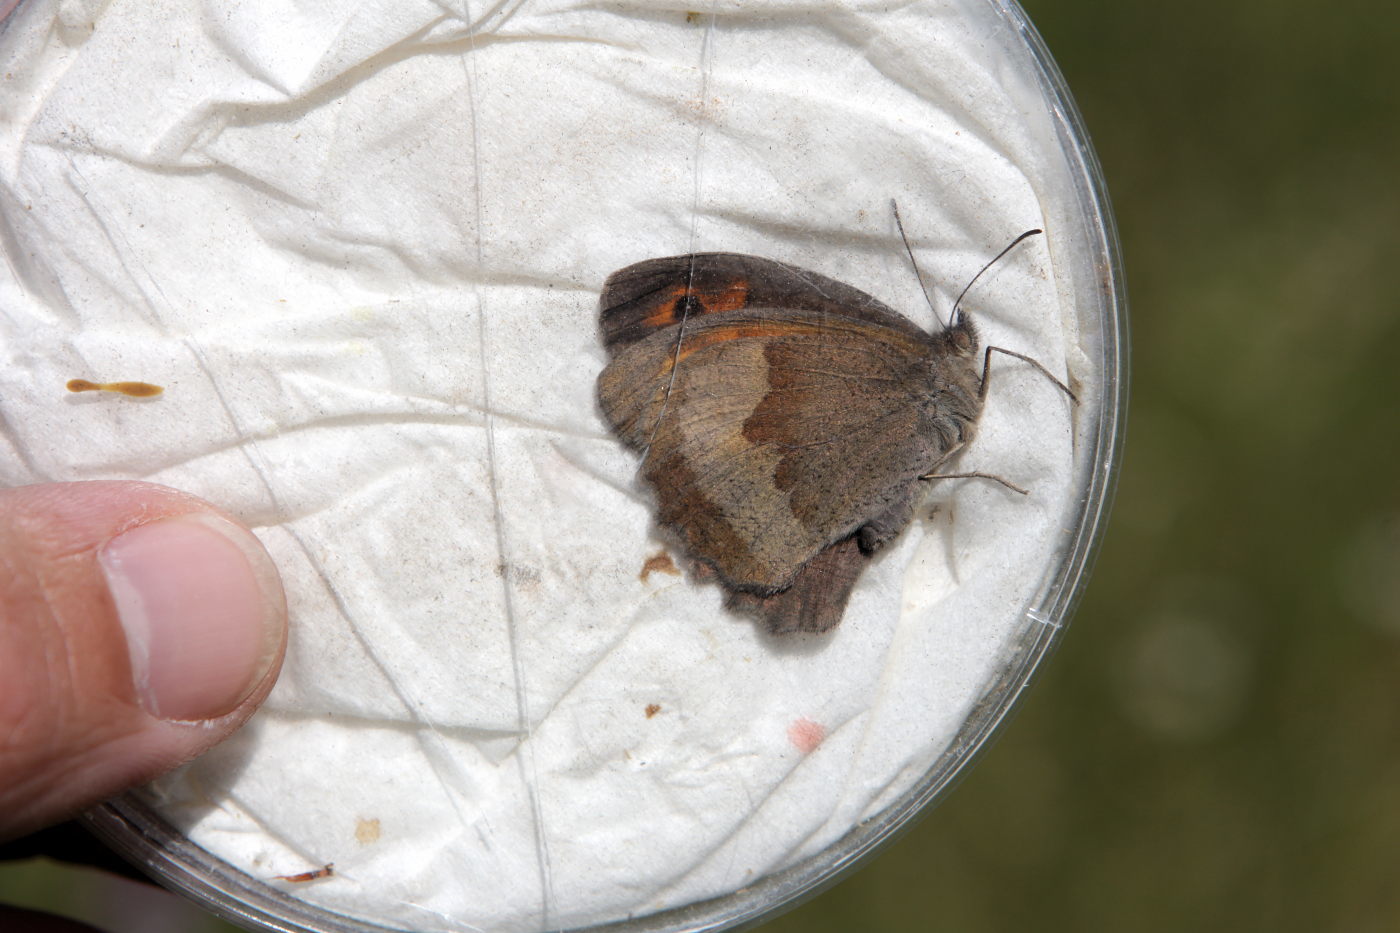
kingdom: Animalia
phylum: Arthropoda
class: Insecta
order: Lepidoptera
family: Nymphalidae
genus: Maniola
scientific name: Maniola jurtina
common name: Meadow brown
